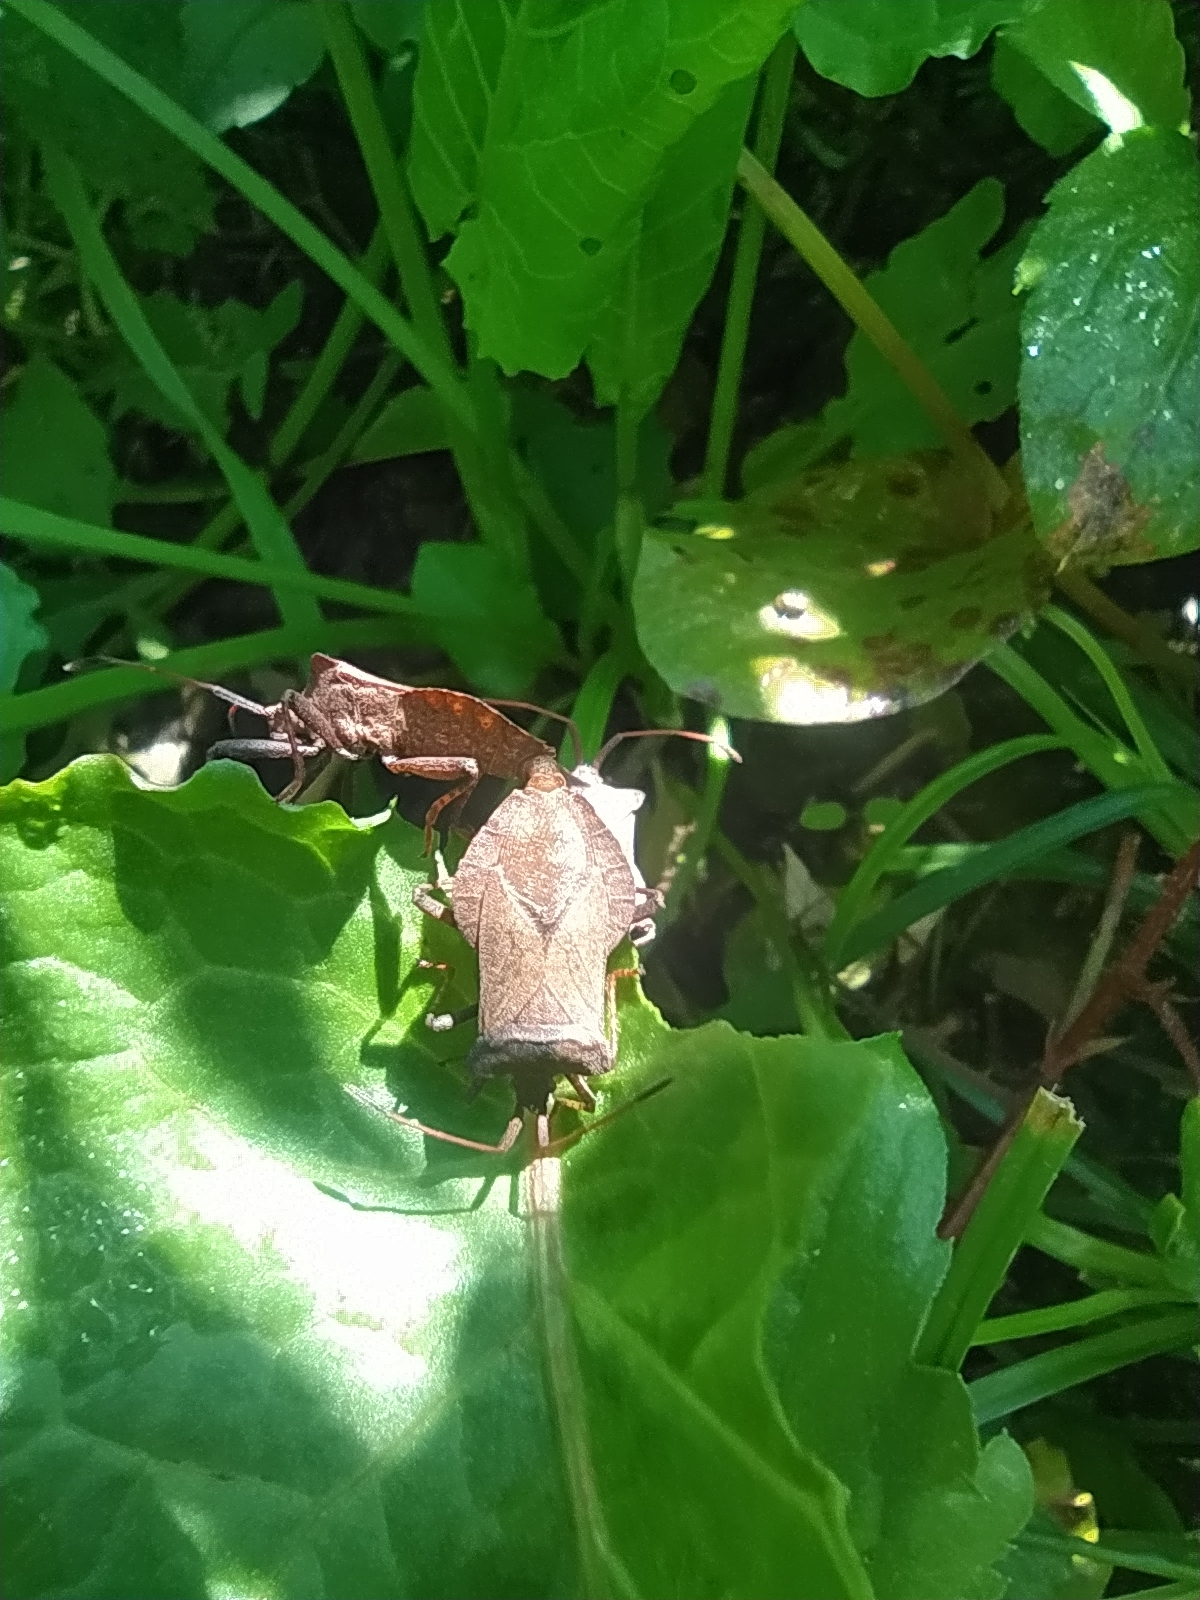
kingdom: Animalia
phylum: Arthropoda
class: Insecta
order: Hemiptera
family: Coreidae
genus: Coreus
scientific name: Coreus marginatus
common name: Dock bug
